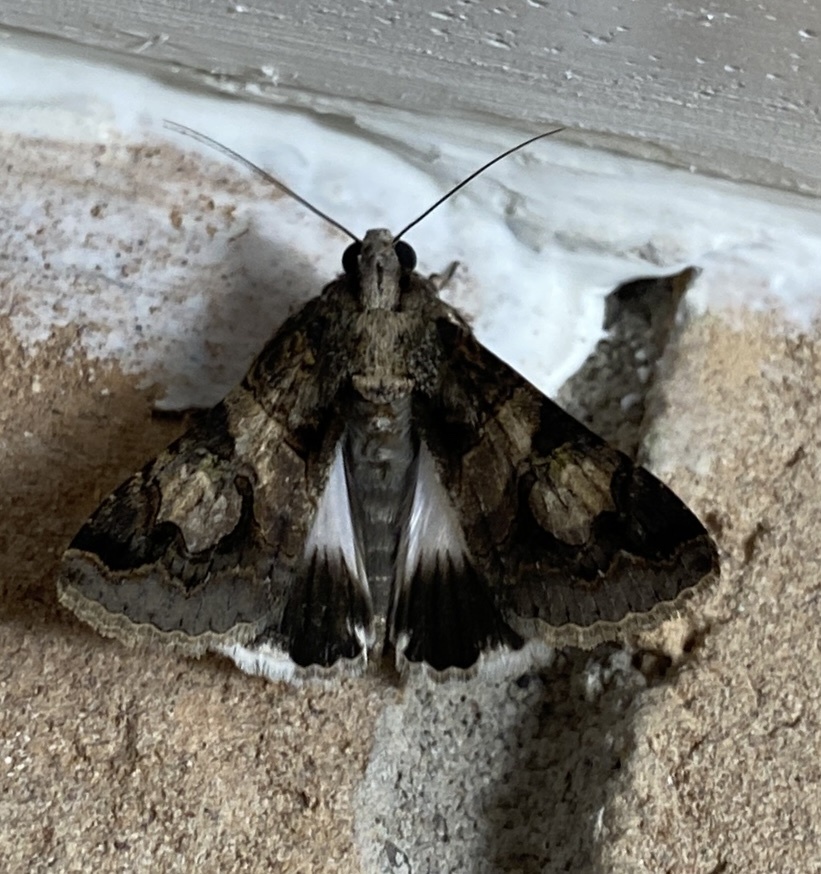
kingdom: Animalia
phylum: Arthropoda
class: Insecta
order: Lepidoptera
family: Erebidae
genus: Melipotis
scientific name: Melipotis famelica
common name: Famelica melipotis moth
